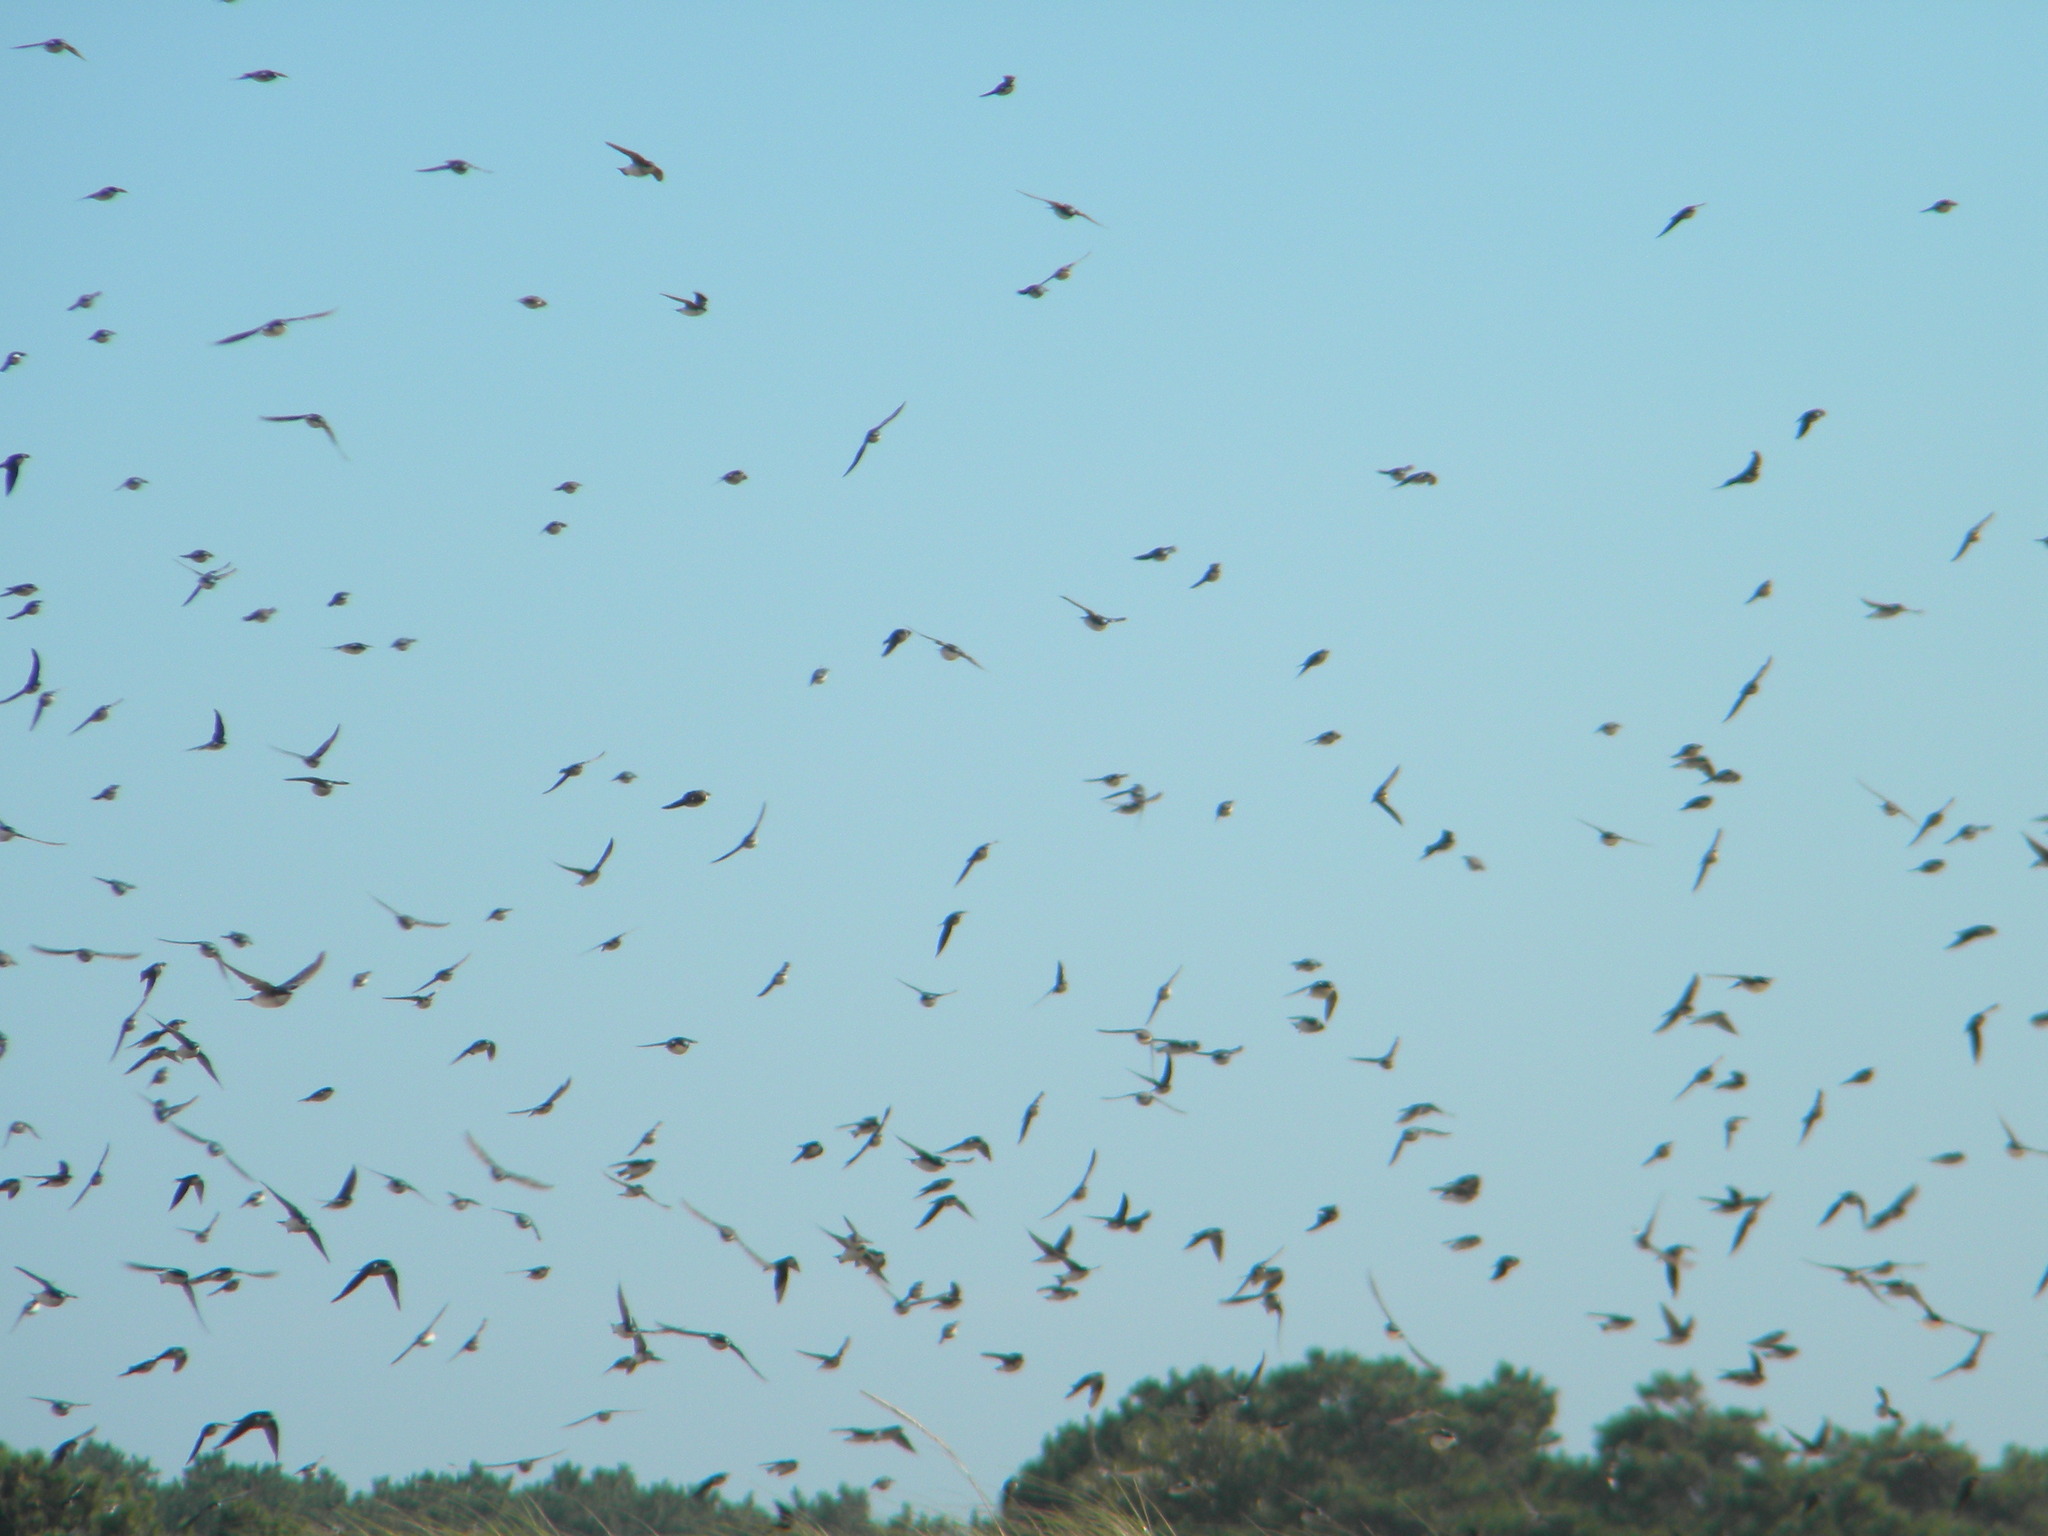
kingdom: Animalia
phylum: Chordata
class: Aves
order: Passeriformes
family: Hirundinidae
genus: Tachycineta
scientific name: Tachycineta bicolor
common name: Tree swallow
